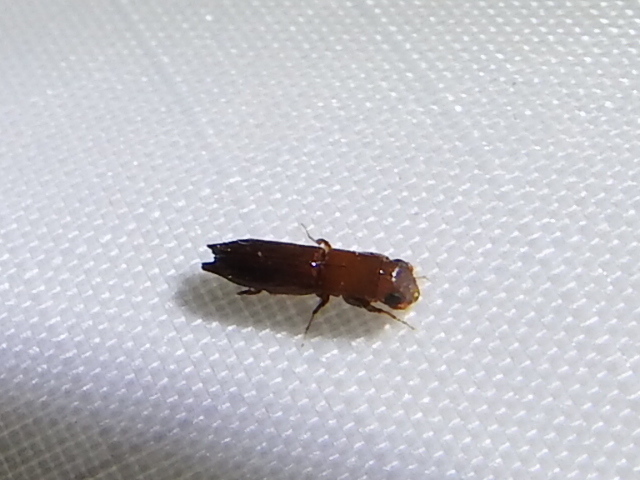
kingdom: Animalia
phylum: Arthropoda
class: Insecta
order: Coleoptera
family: Curculionidae
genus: Euplatypus
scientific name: Euplatypus compositus
